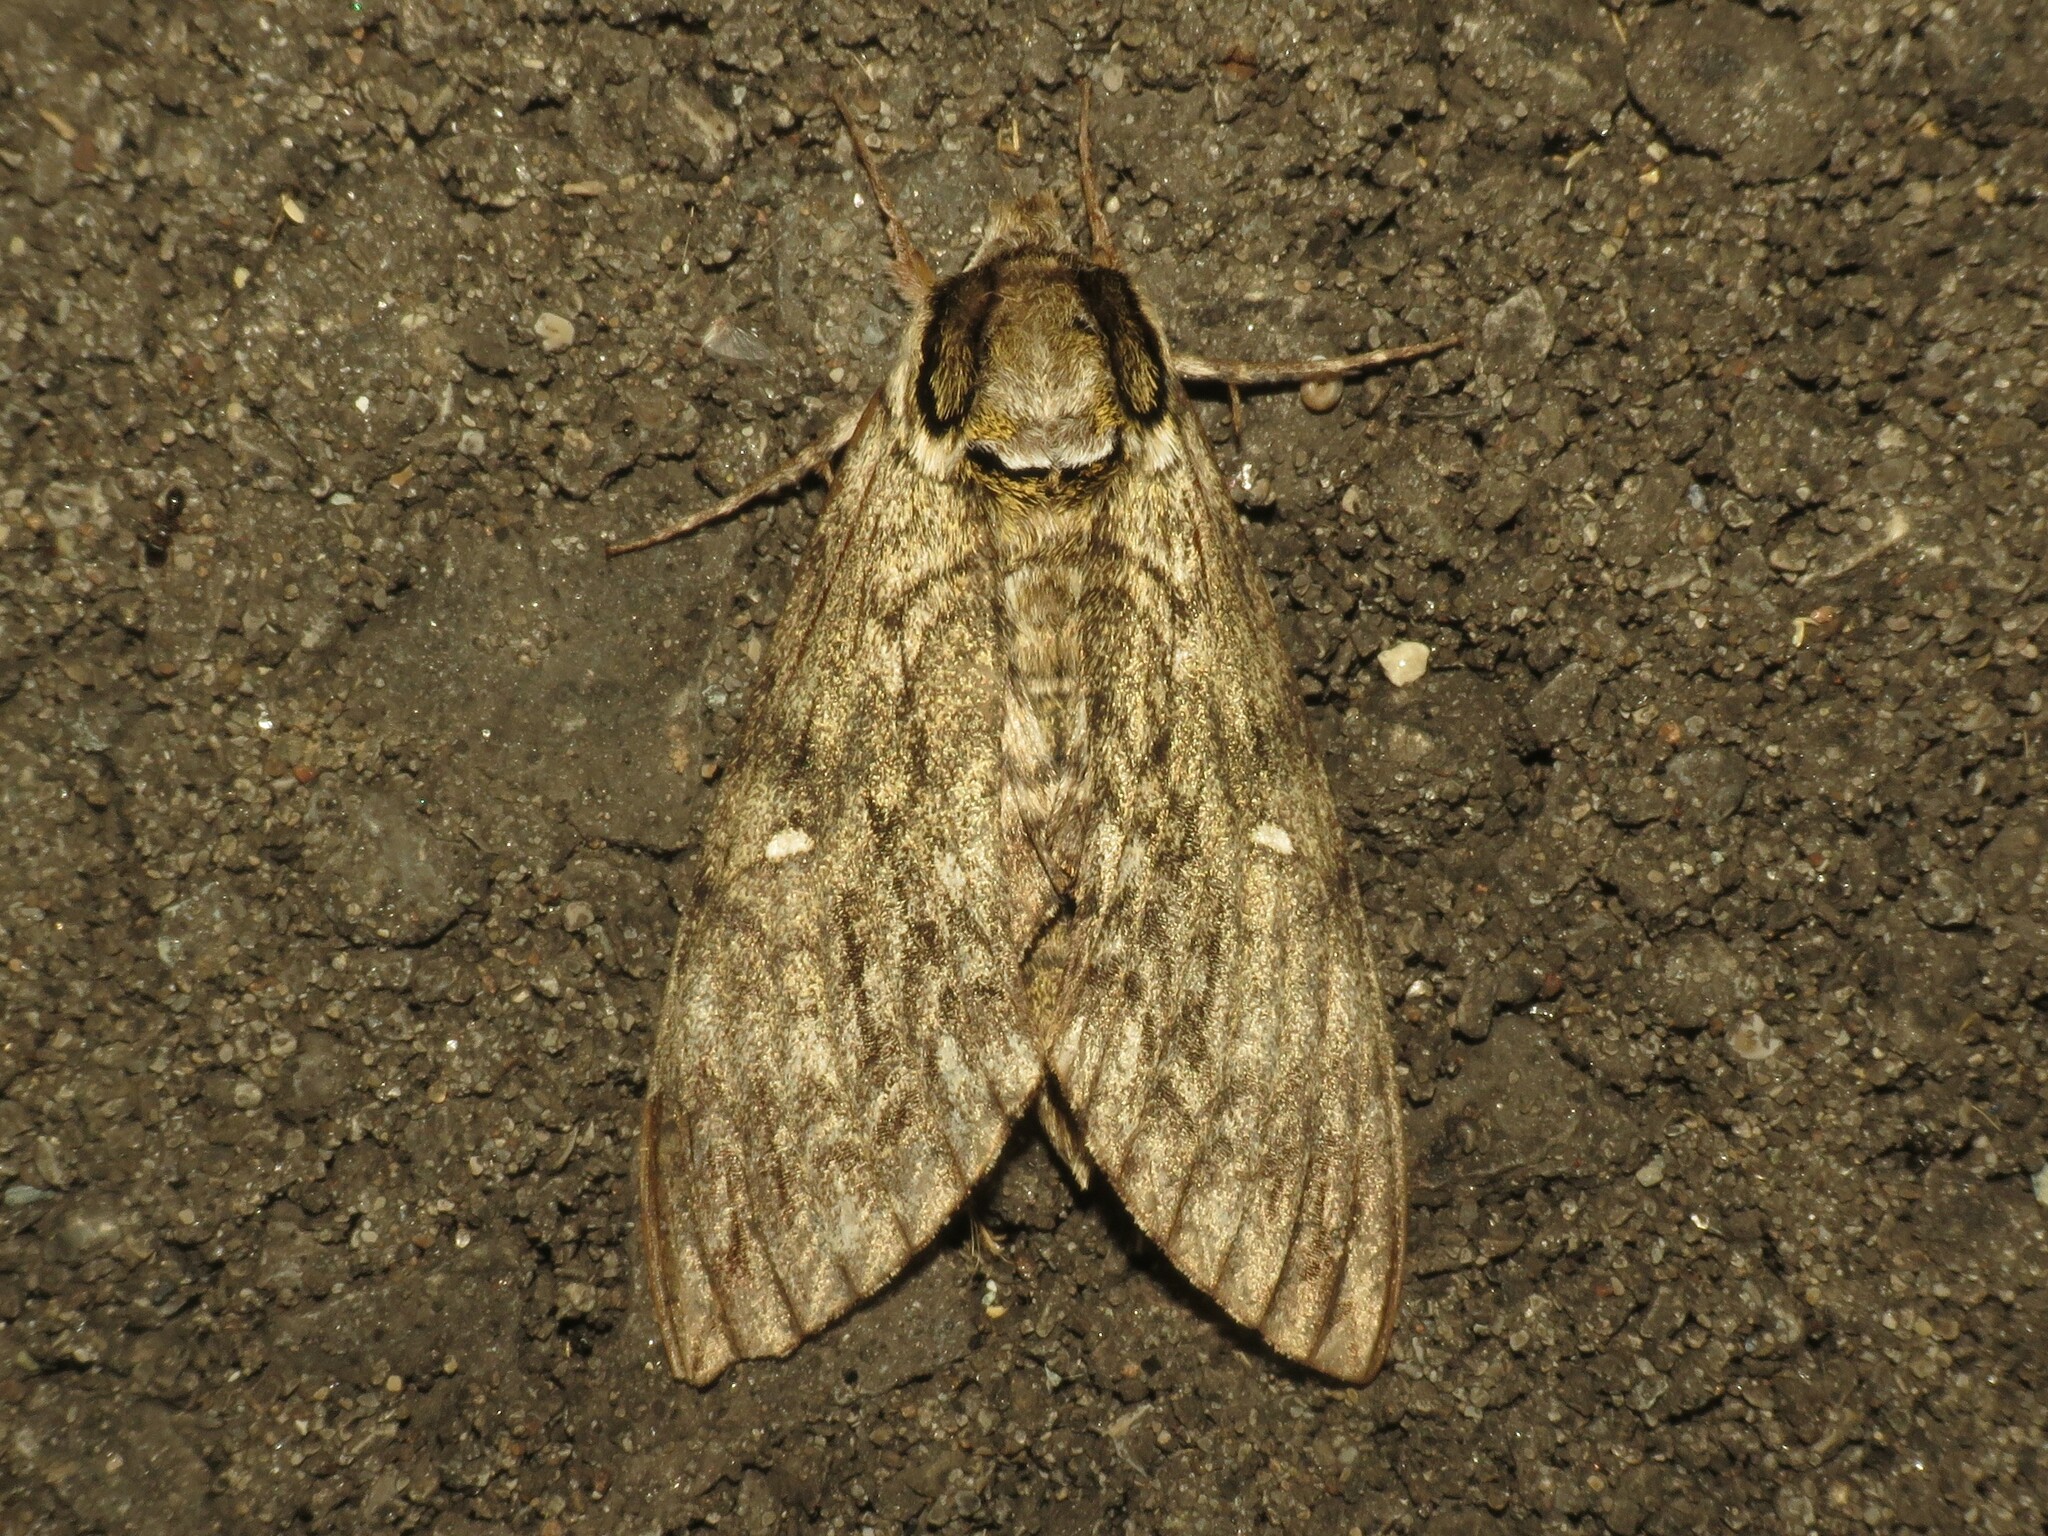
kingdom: Animalia
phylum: Arthropoda
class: Insecta
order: Lepidoptera
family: Sphingidae
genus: Ceratomia
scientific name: Ceratomia undulosa
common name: Waved sphinx
